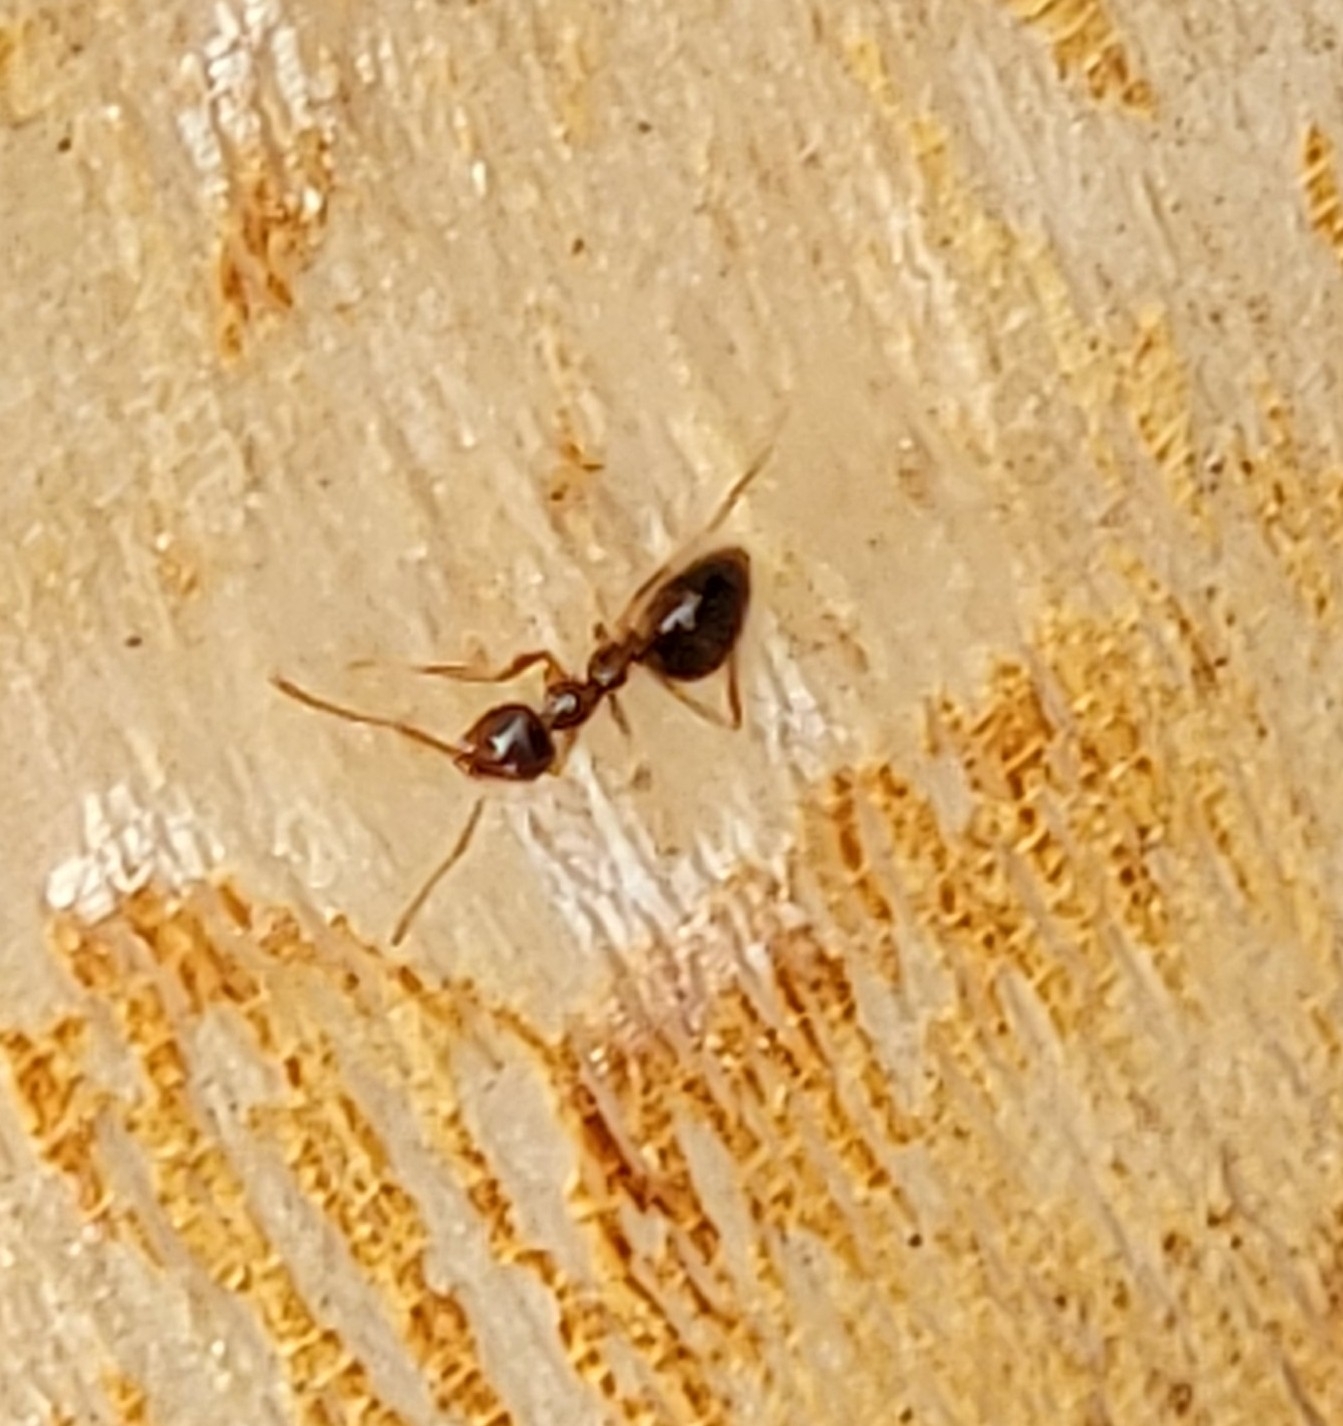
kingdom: Animalia
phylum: Arthropoda
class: Insecta
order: Hymenoptera
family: Formicidae
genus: Prenolepis
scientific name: Prenolepis imparis
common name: Small honey ant
